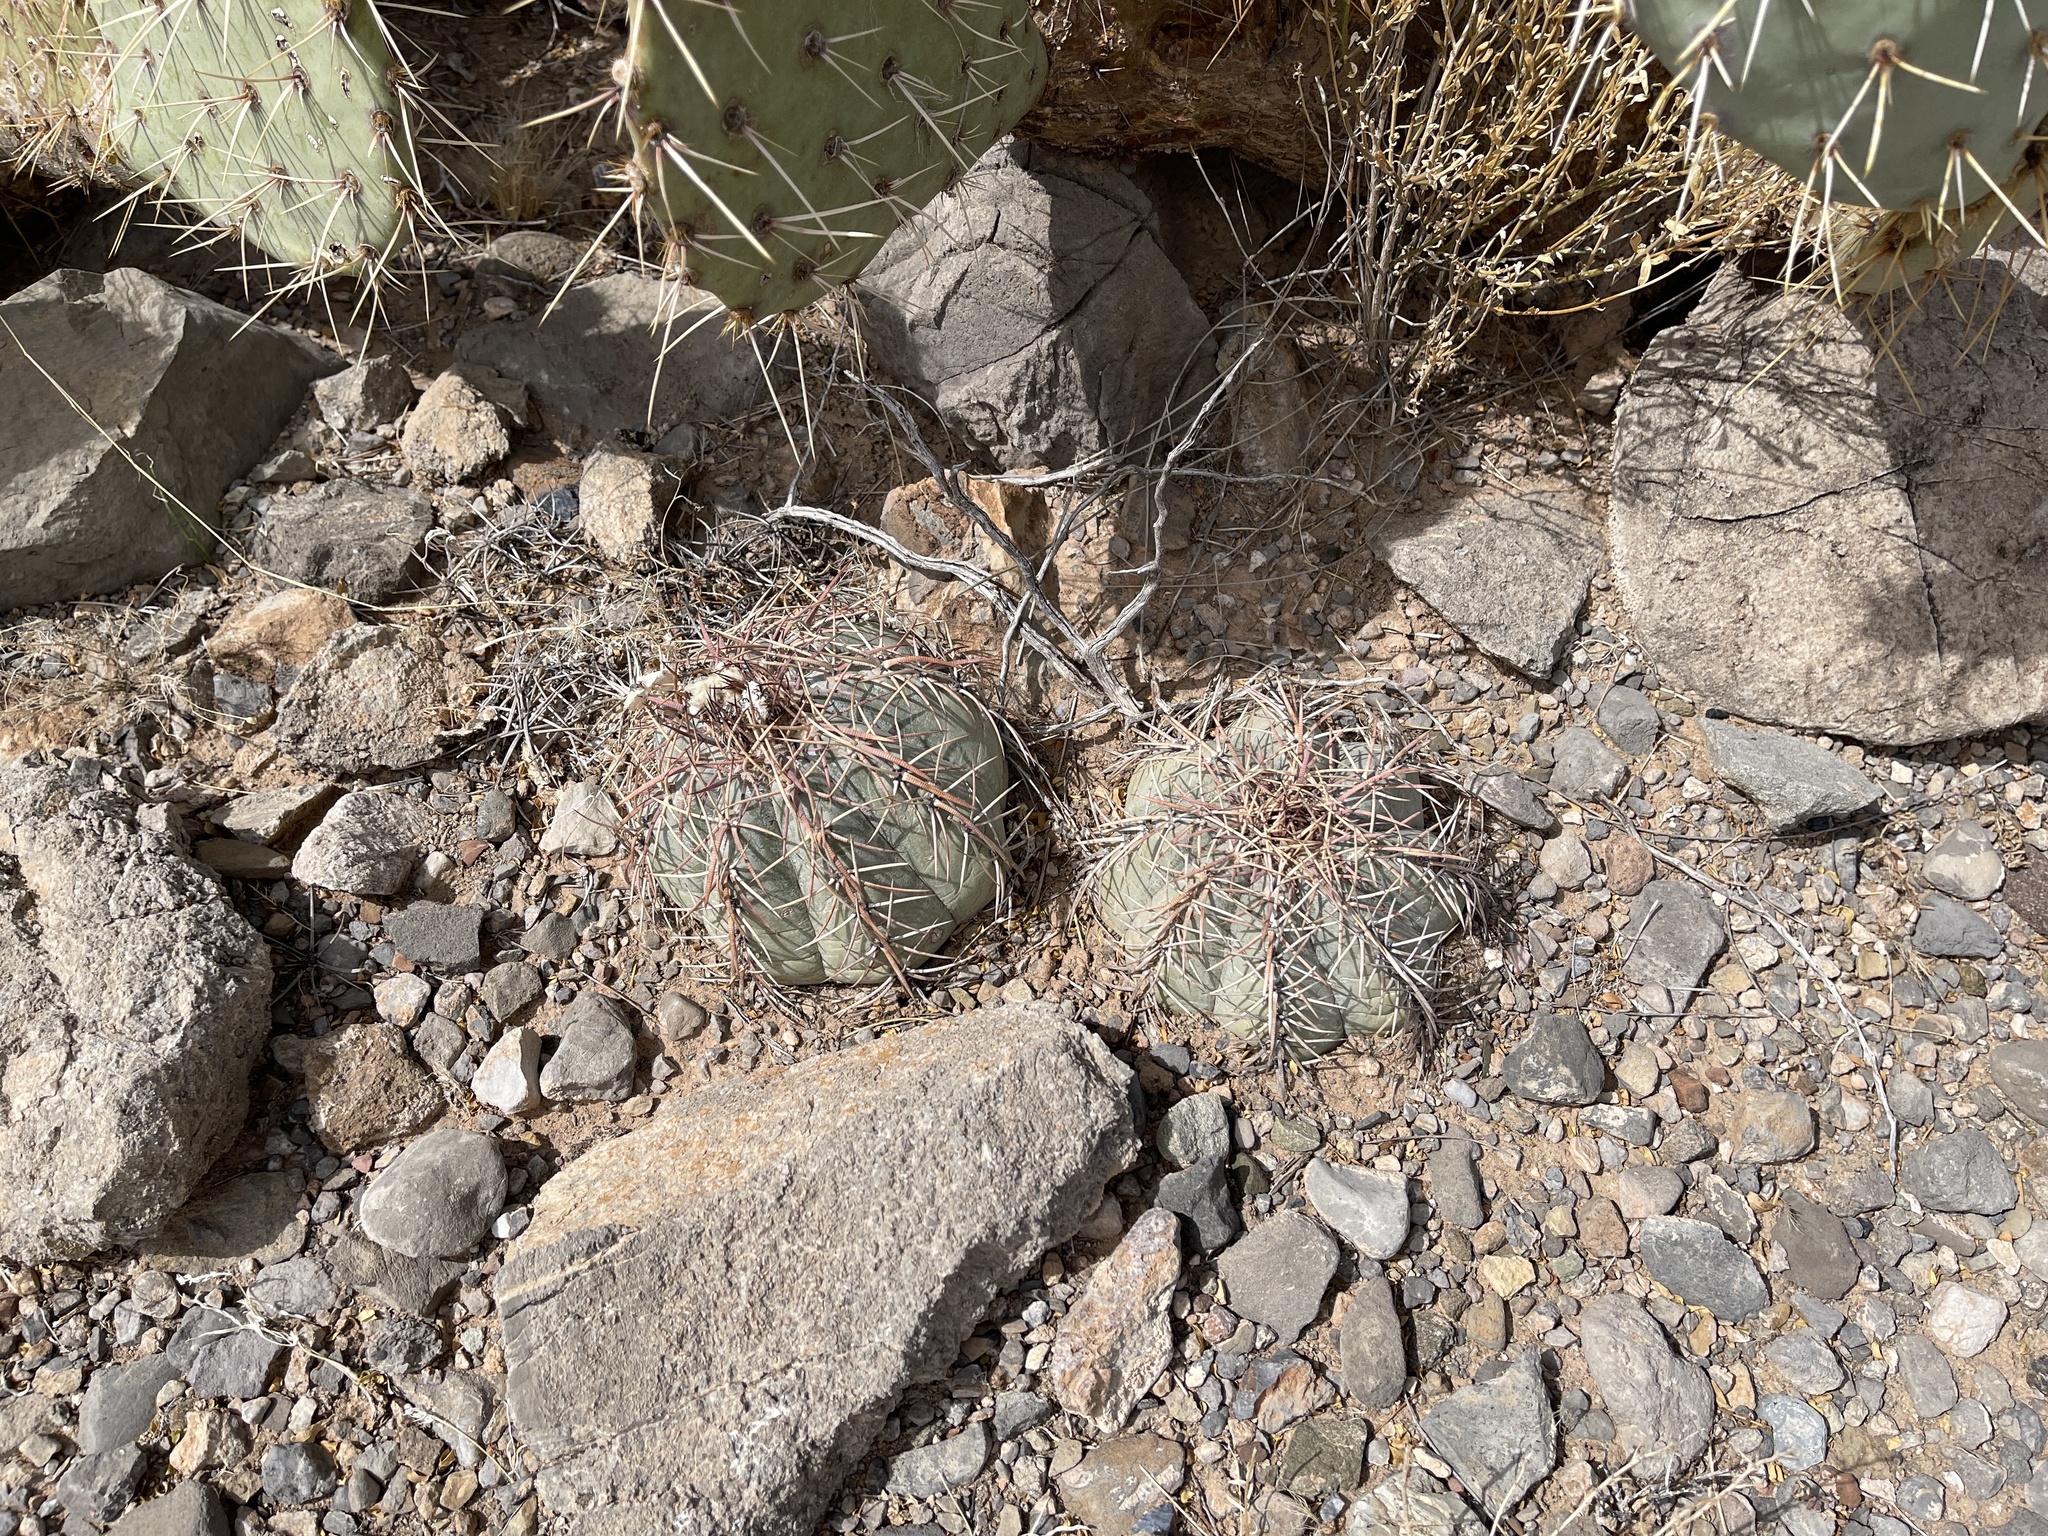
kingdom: Plantae
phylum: Tracheophyta
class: Magnoliopsida
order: Caryophyllales
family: Cactaceae
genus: Echinocactus
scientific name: Echinocactus horizonthalonius
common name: Devilshead
